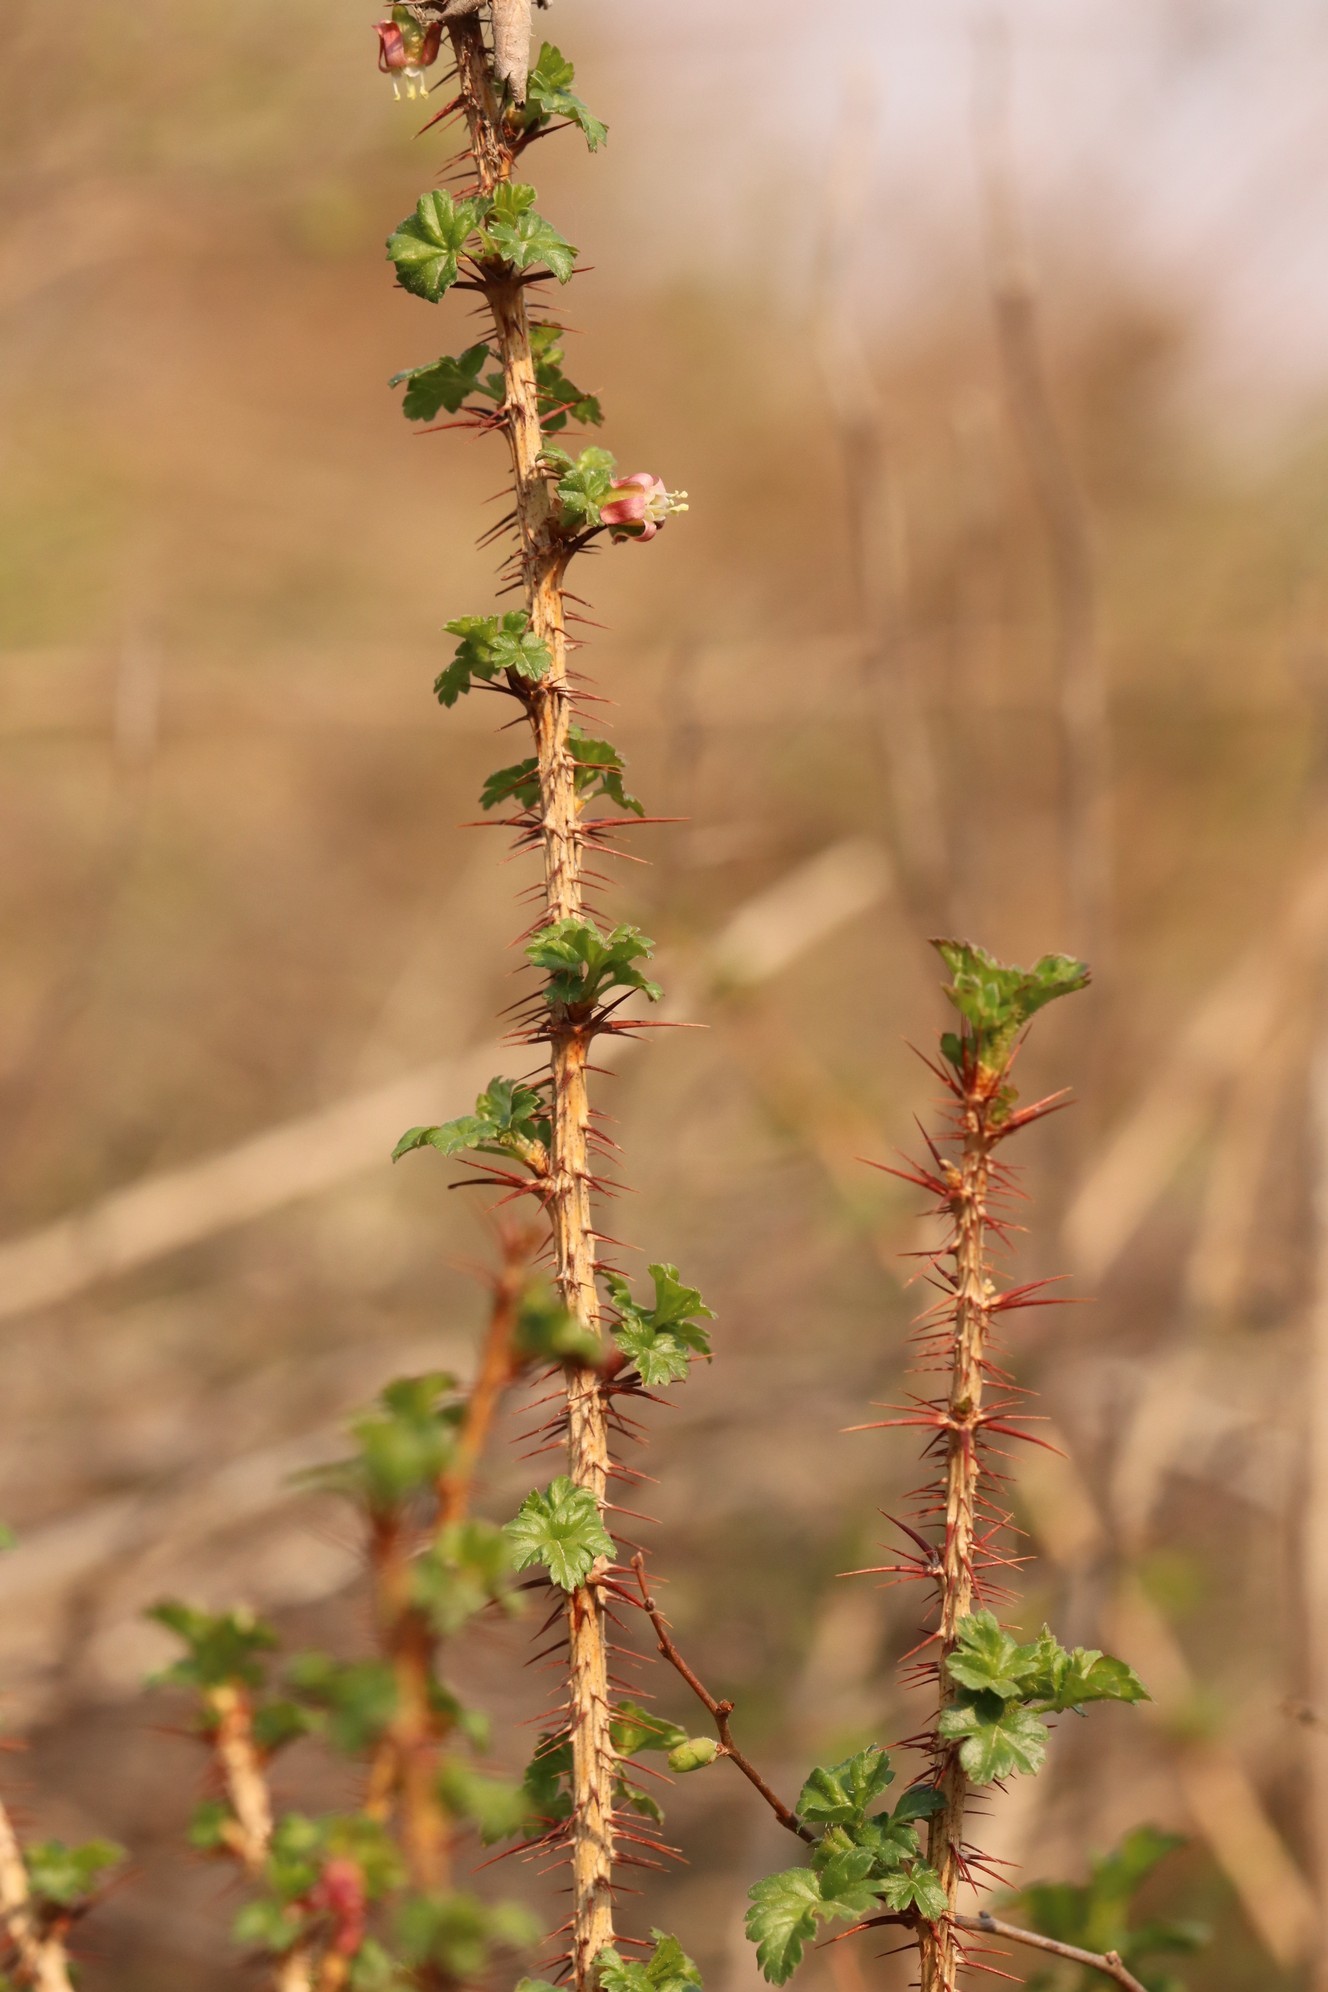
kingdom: Plantae
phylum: Tracheophyta
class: Magnoliopsida
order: Saxifragales
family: Grossulariaceae
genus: Ribes
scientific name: Ribes aciculare
